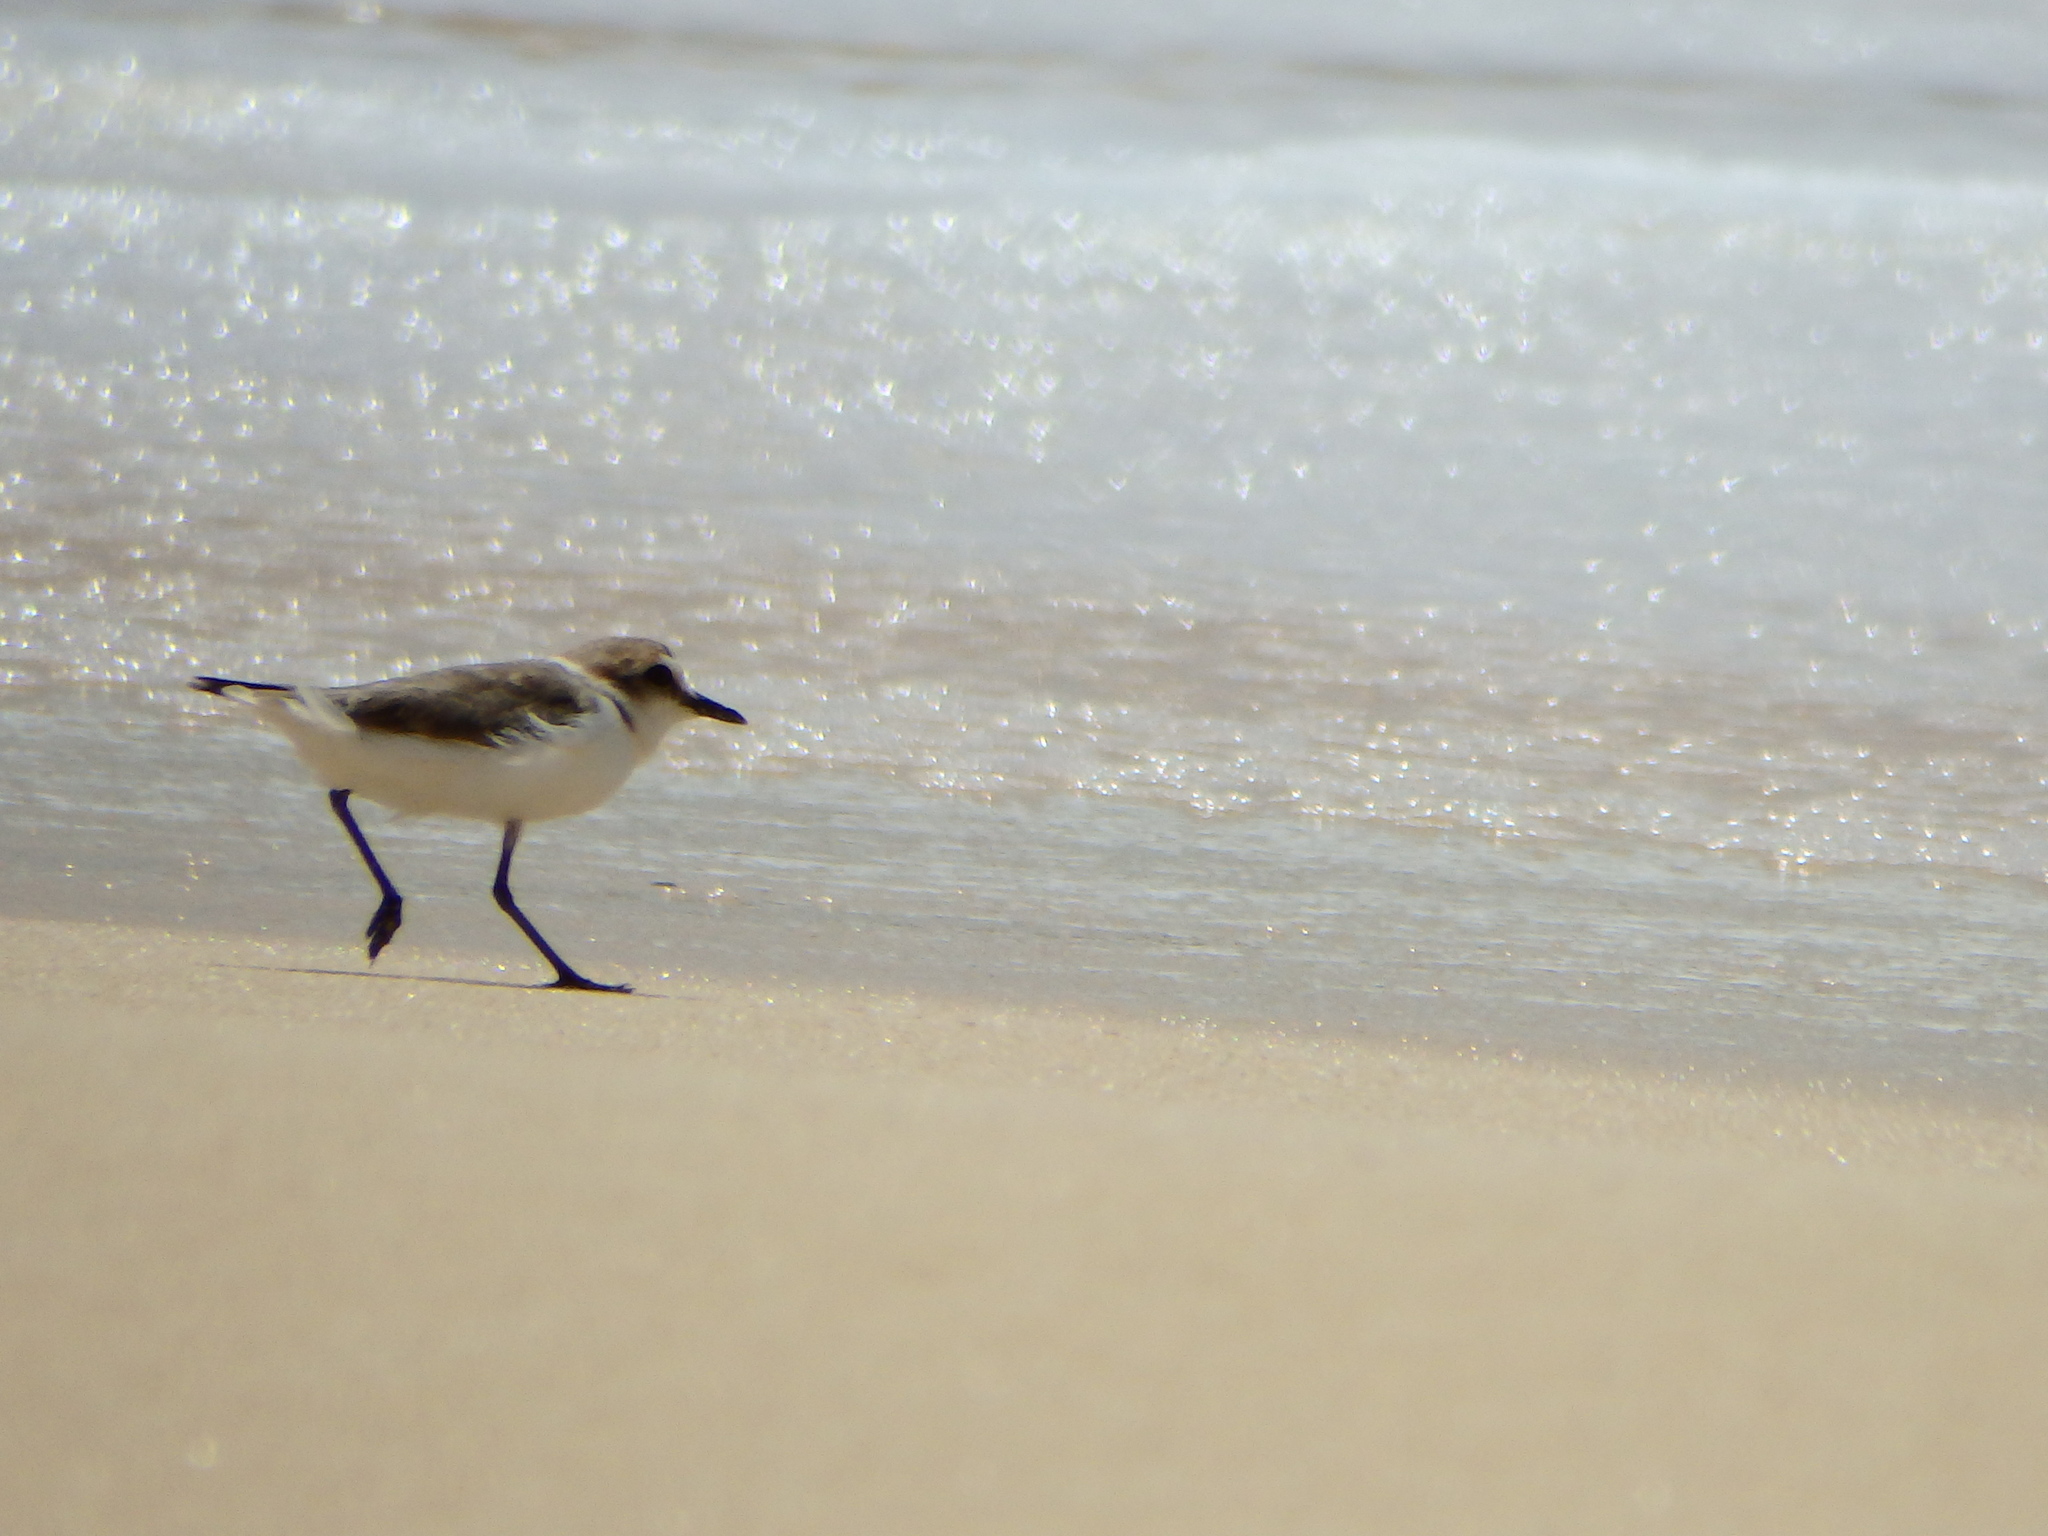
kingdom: Animalia
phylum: Chordata
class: Aves
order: Charadriiformes
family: Charadriidae
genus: Charadrius
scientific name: Charadrius alexandrinus
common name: Kentish plover
